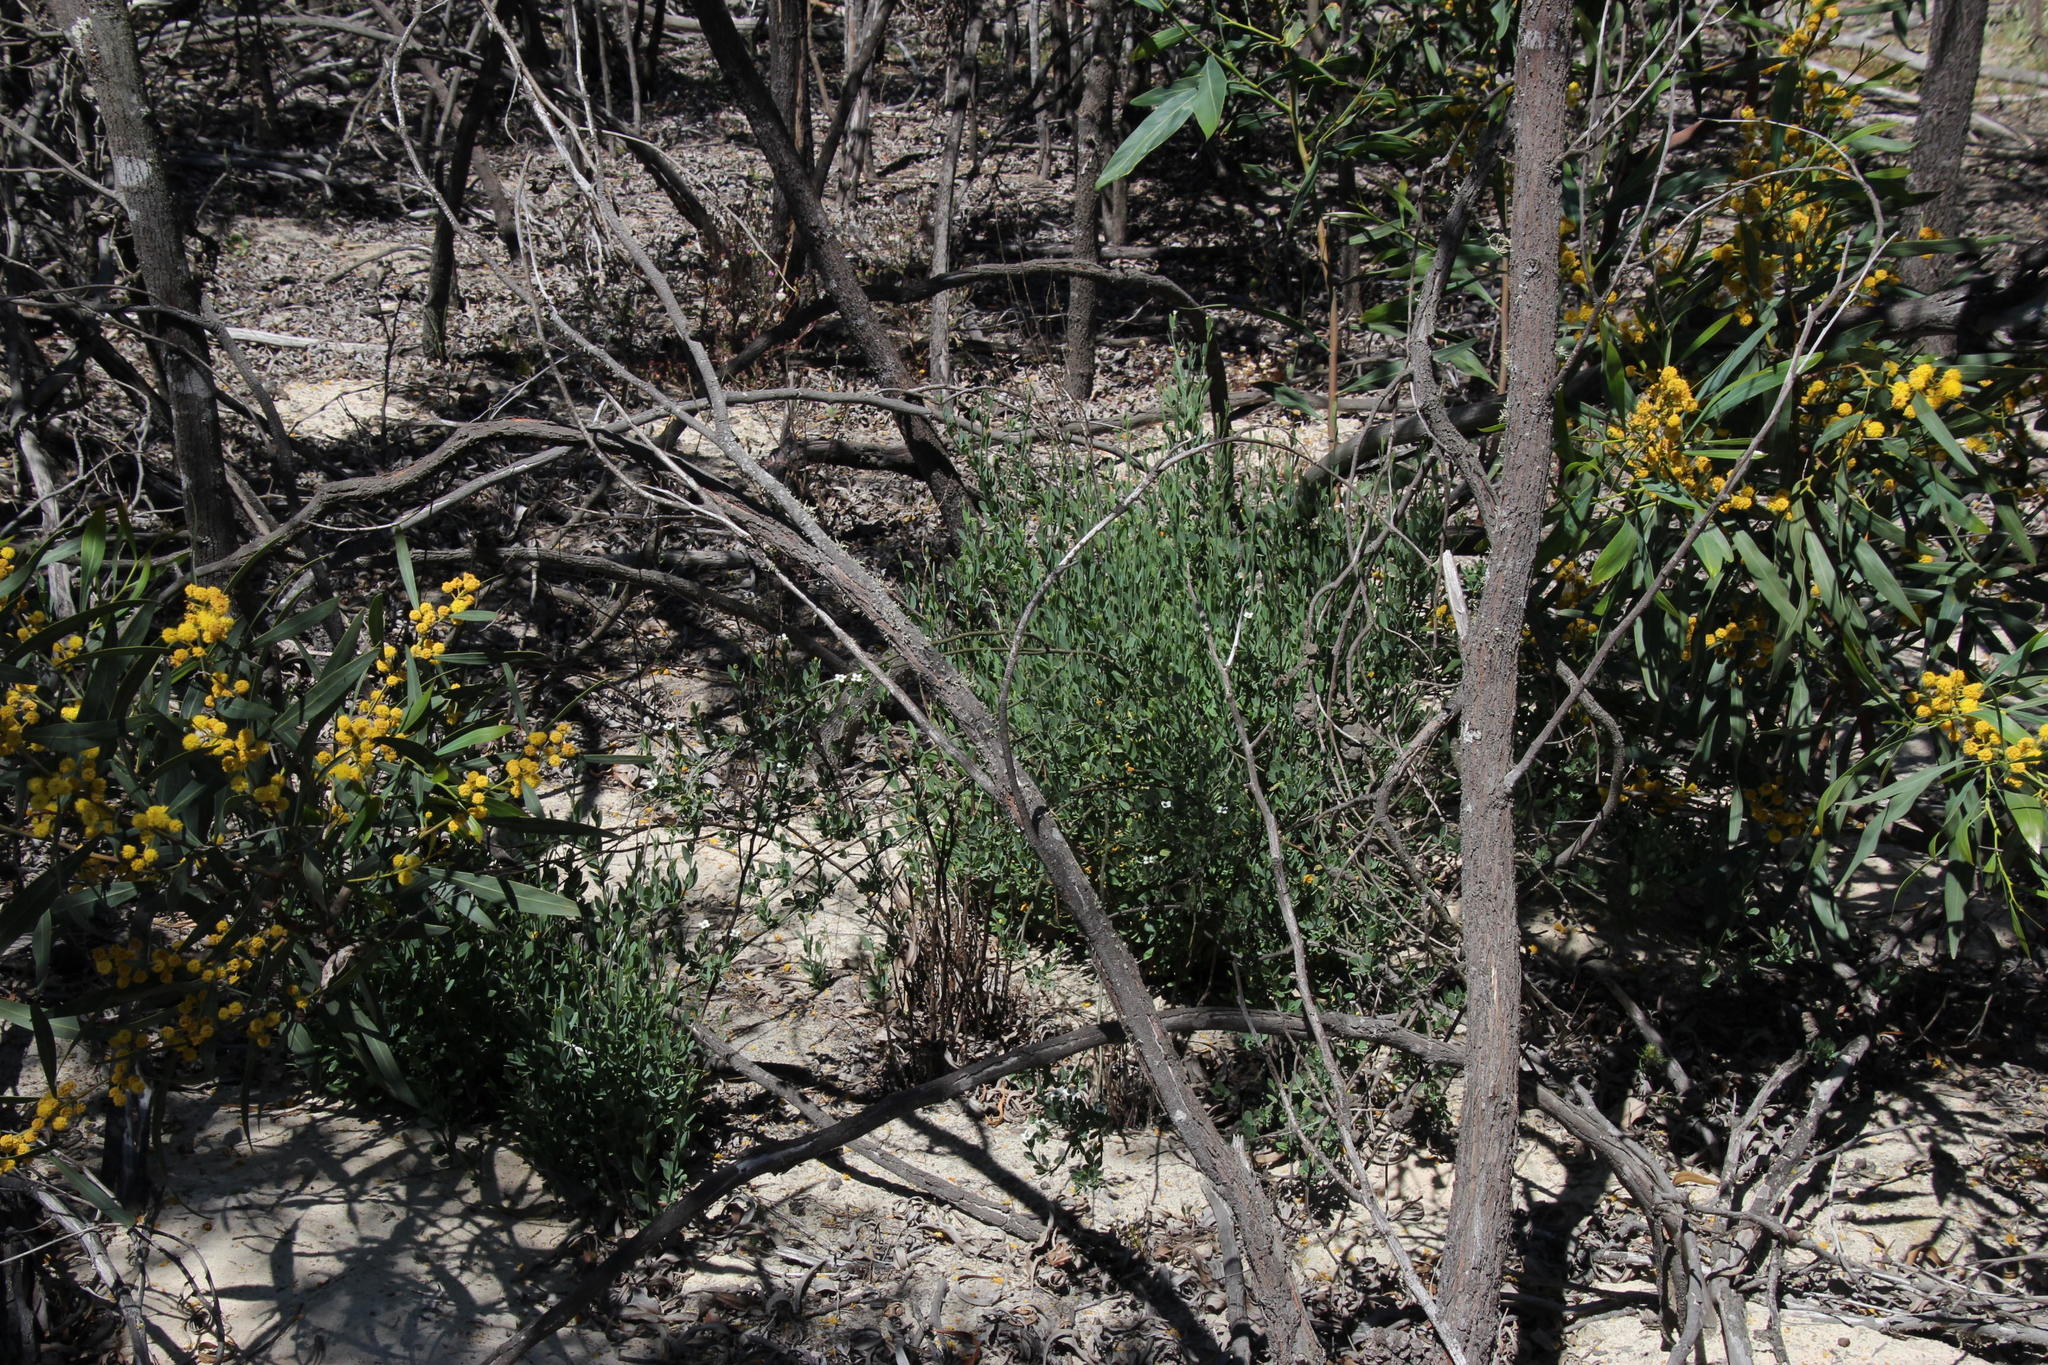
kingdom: Plantae
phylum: Tracheophyta
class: Magnoliopsida
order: Solanales
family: Montiniaceae
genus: Montinia
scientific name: Montinia caryophyllacea
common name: Wild clove-bush
